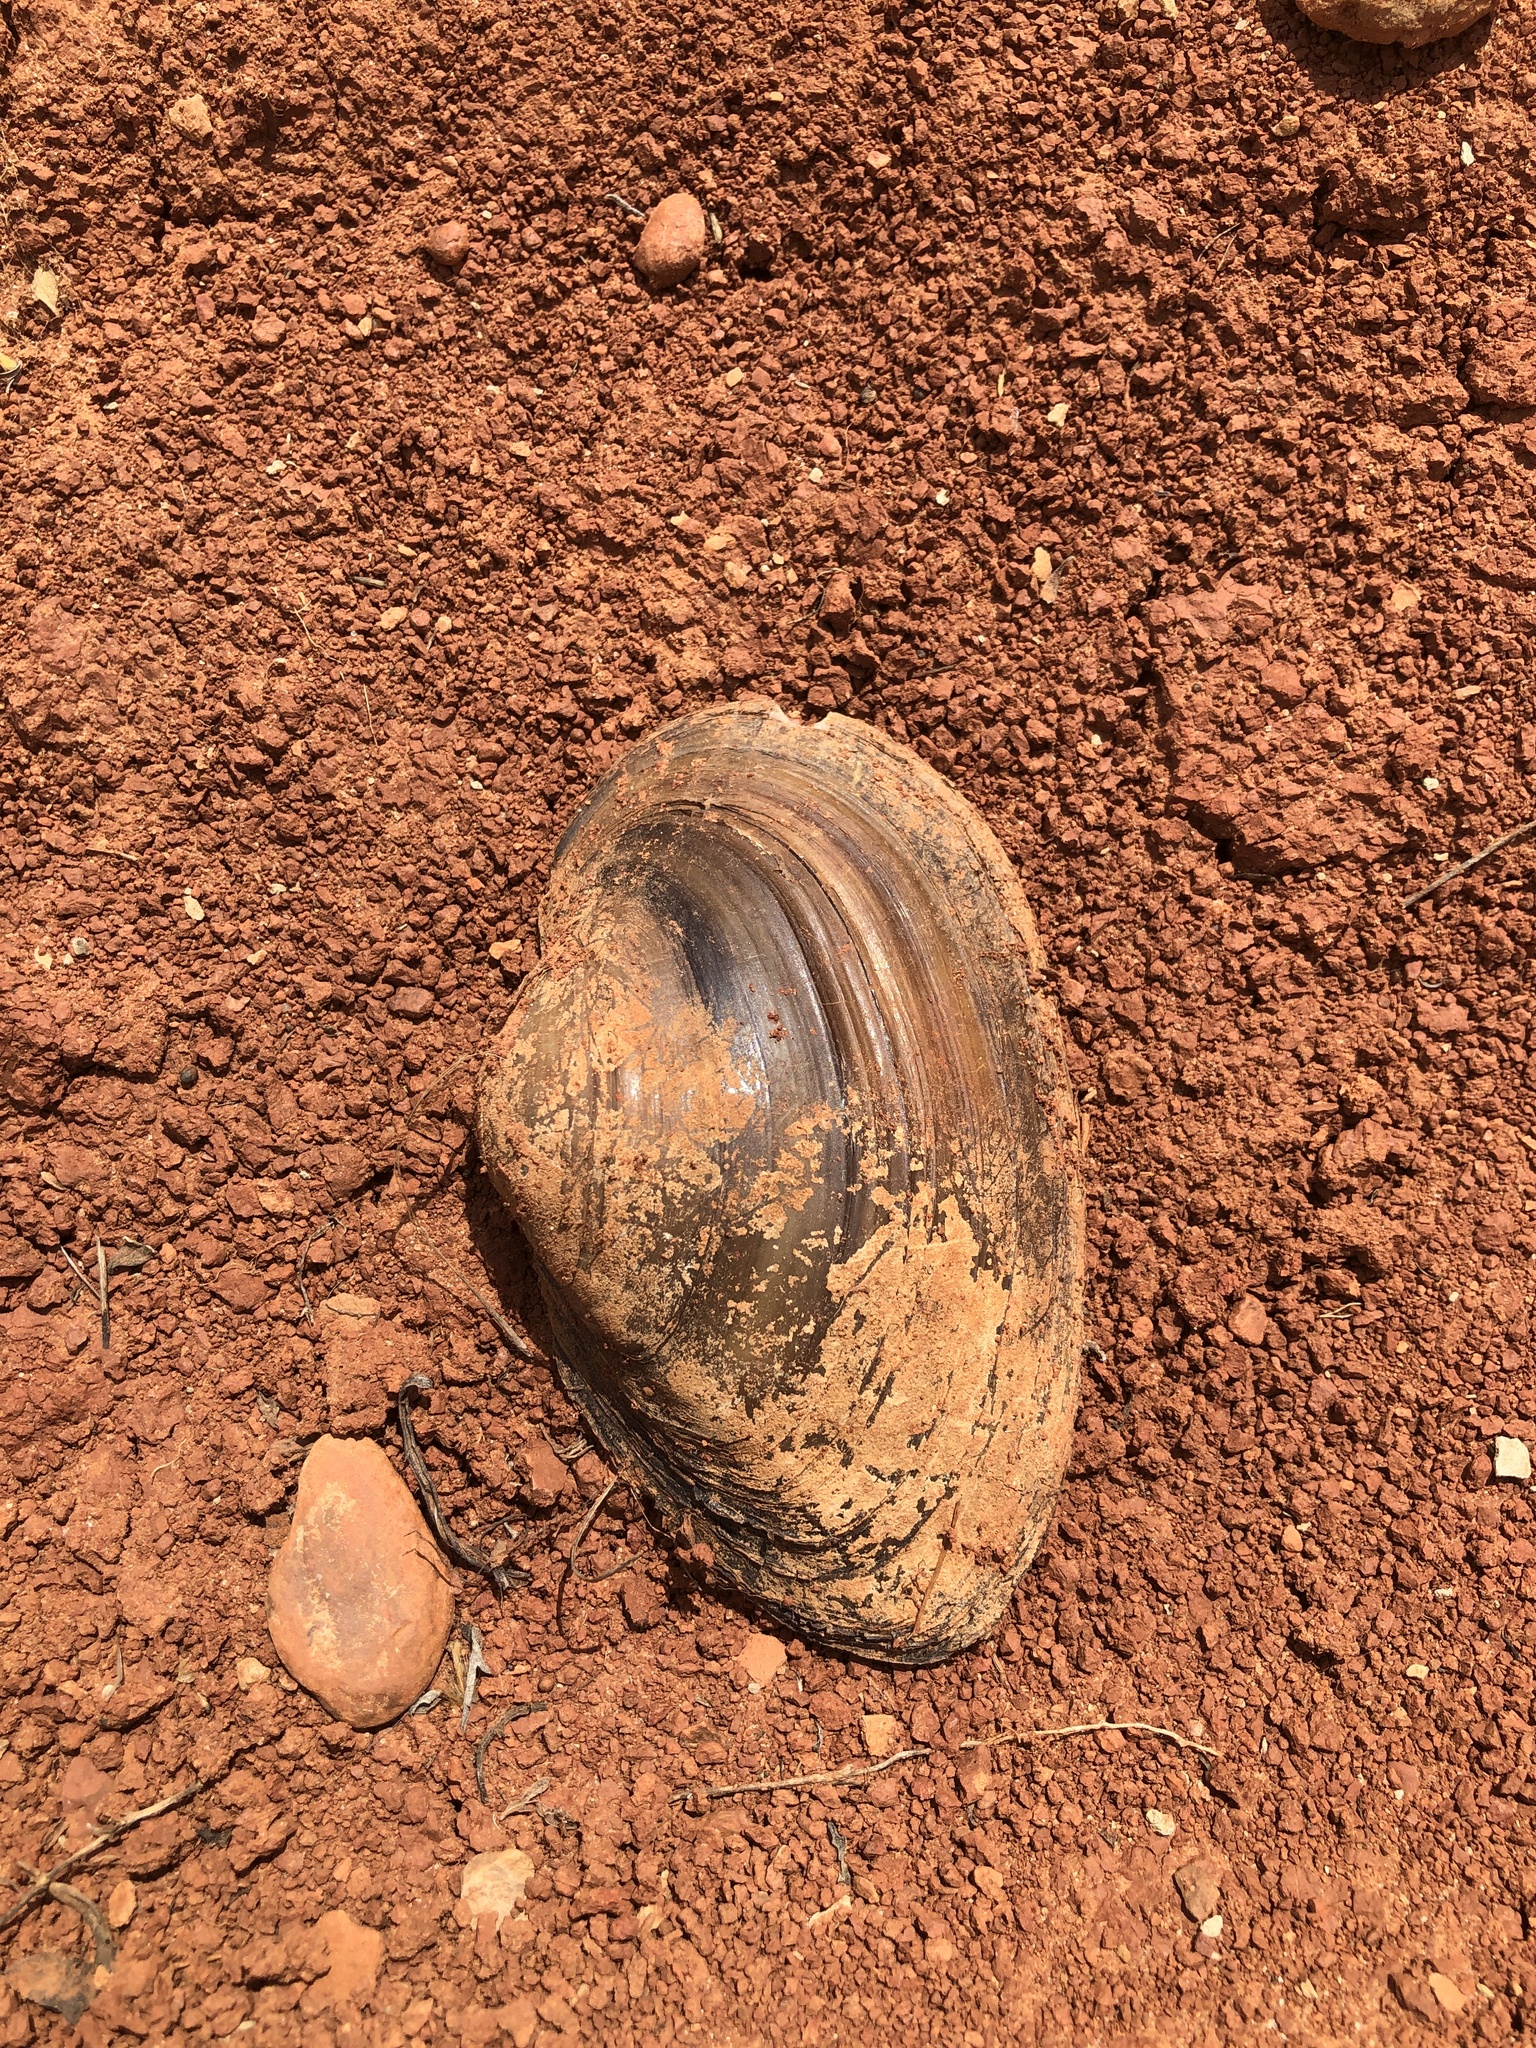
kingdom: Animalia
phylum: Mollusca
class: Bivalvia
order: Unionida
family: Unionidae
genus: Pyganodon
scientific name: Pyganodon grandis
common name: Giant floater
